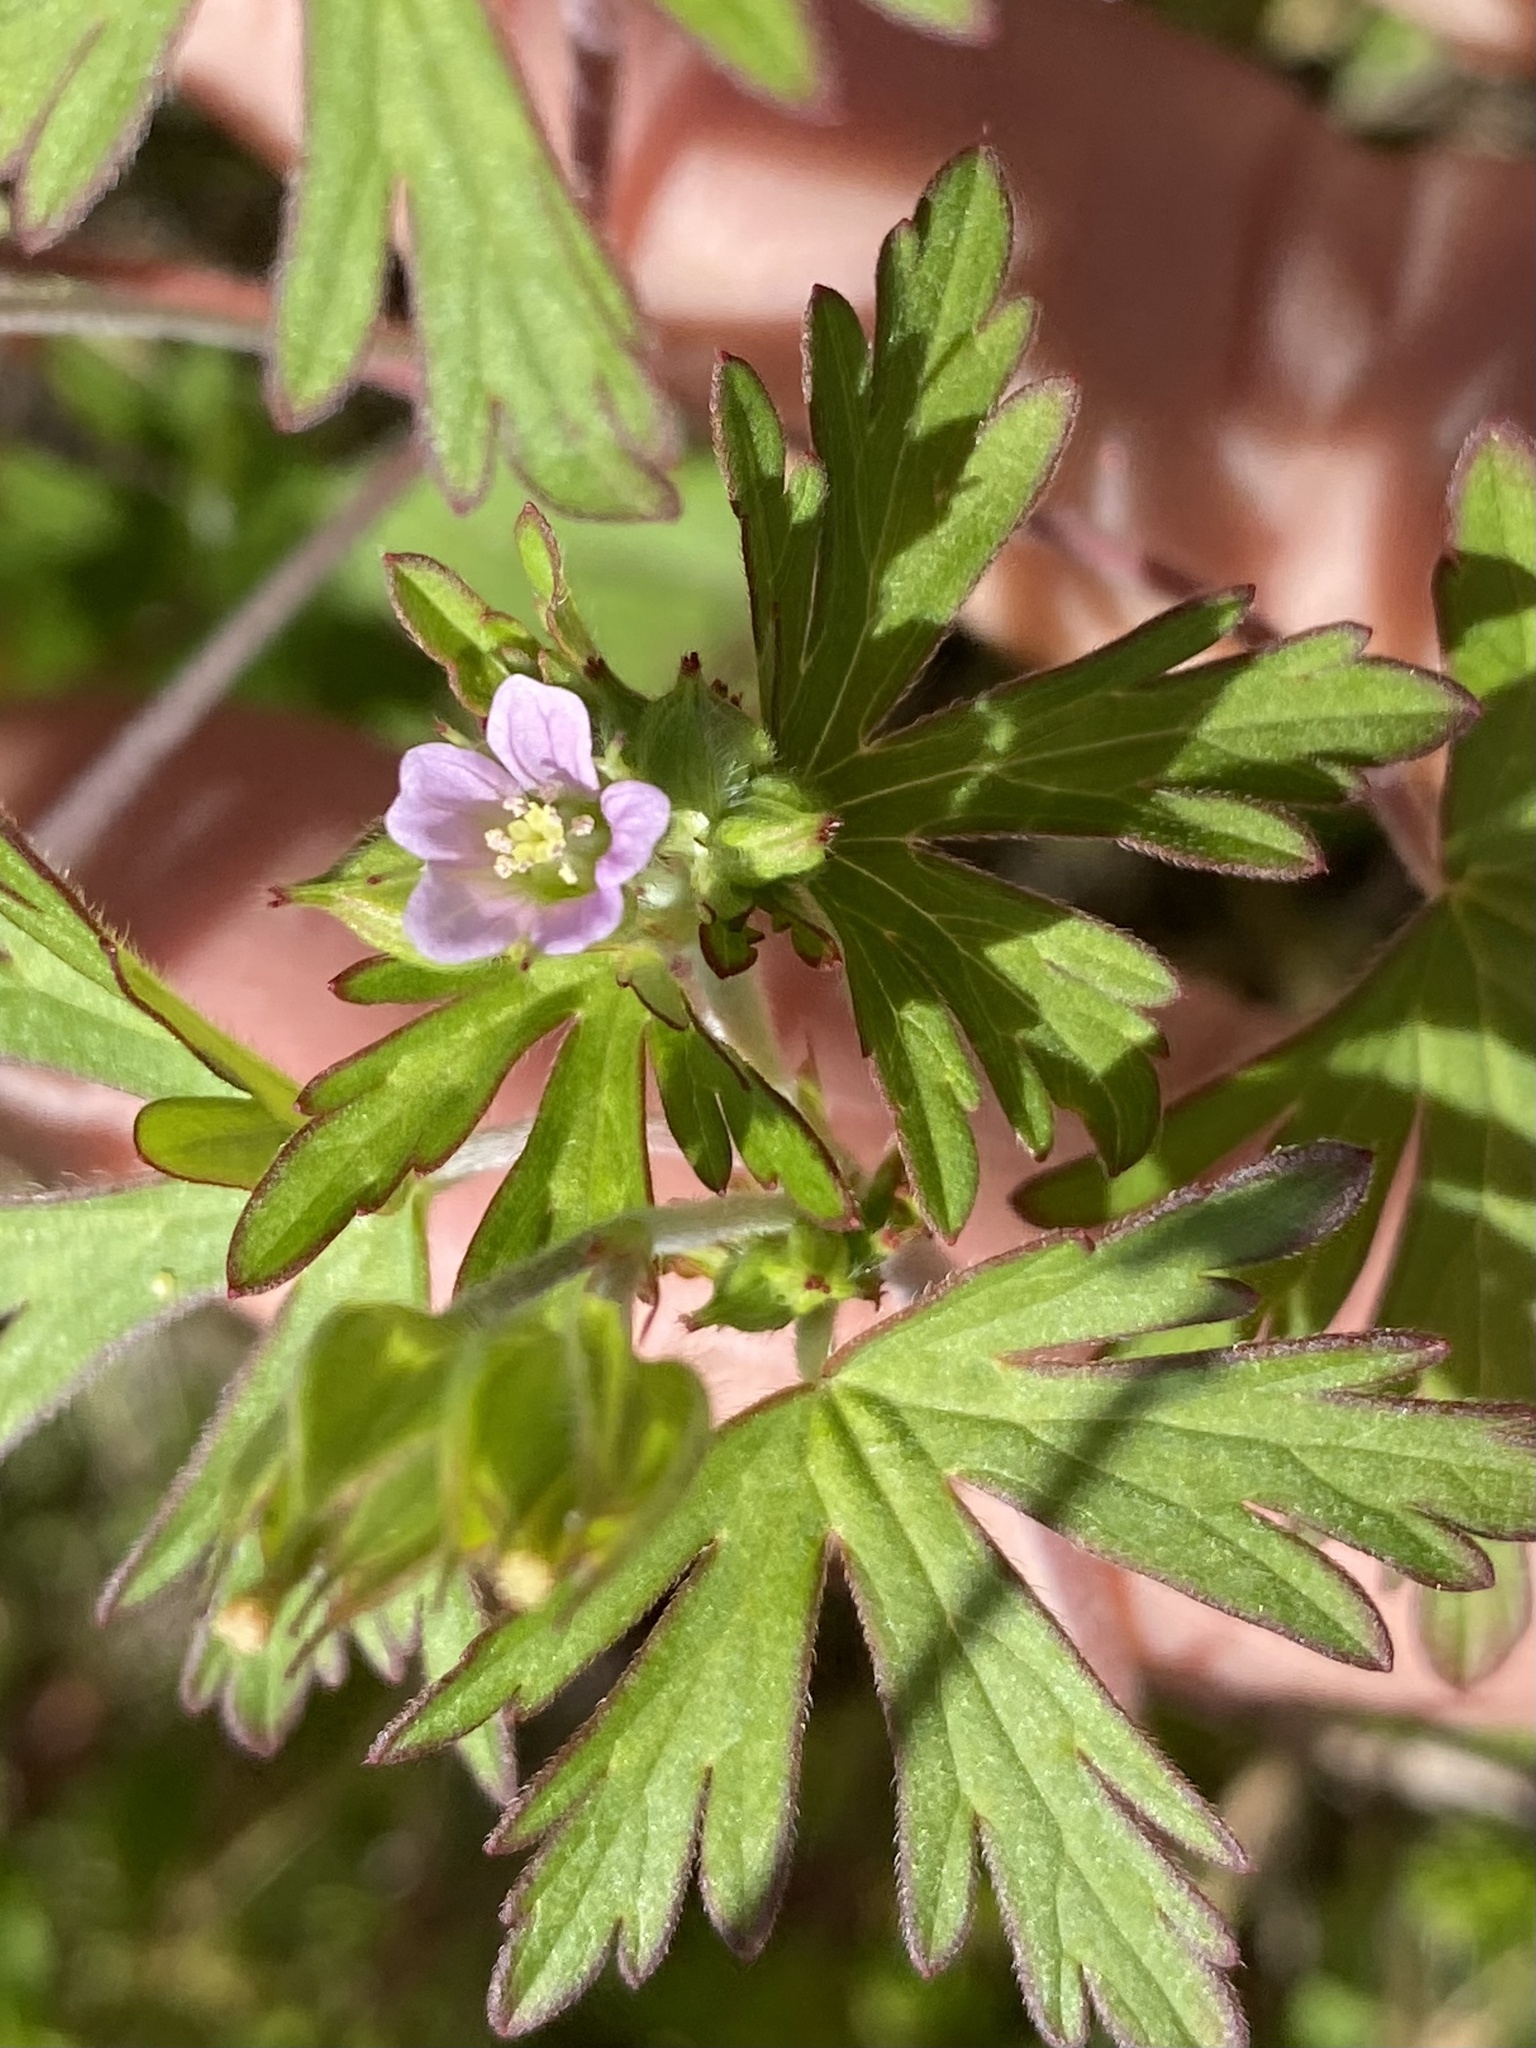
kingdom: Plantae
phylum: Tracheophyta
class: Magnoliopsida
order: Geraniales
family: Geraniaceae
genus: Geranium
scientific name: Geranium carolinianum
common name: Carolina crane's-bill
